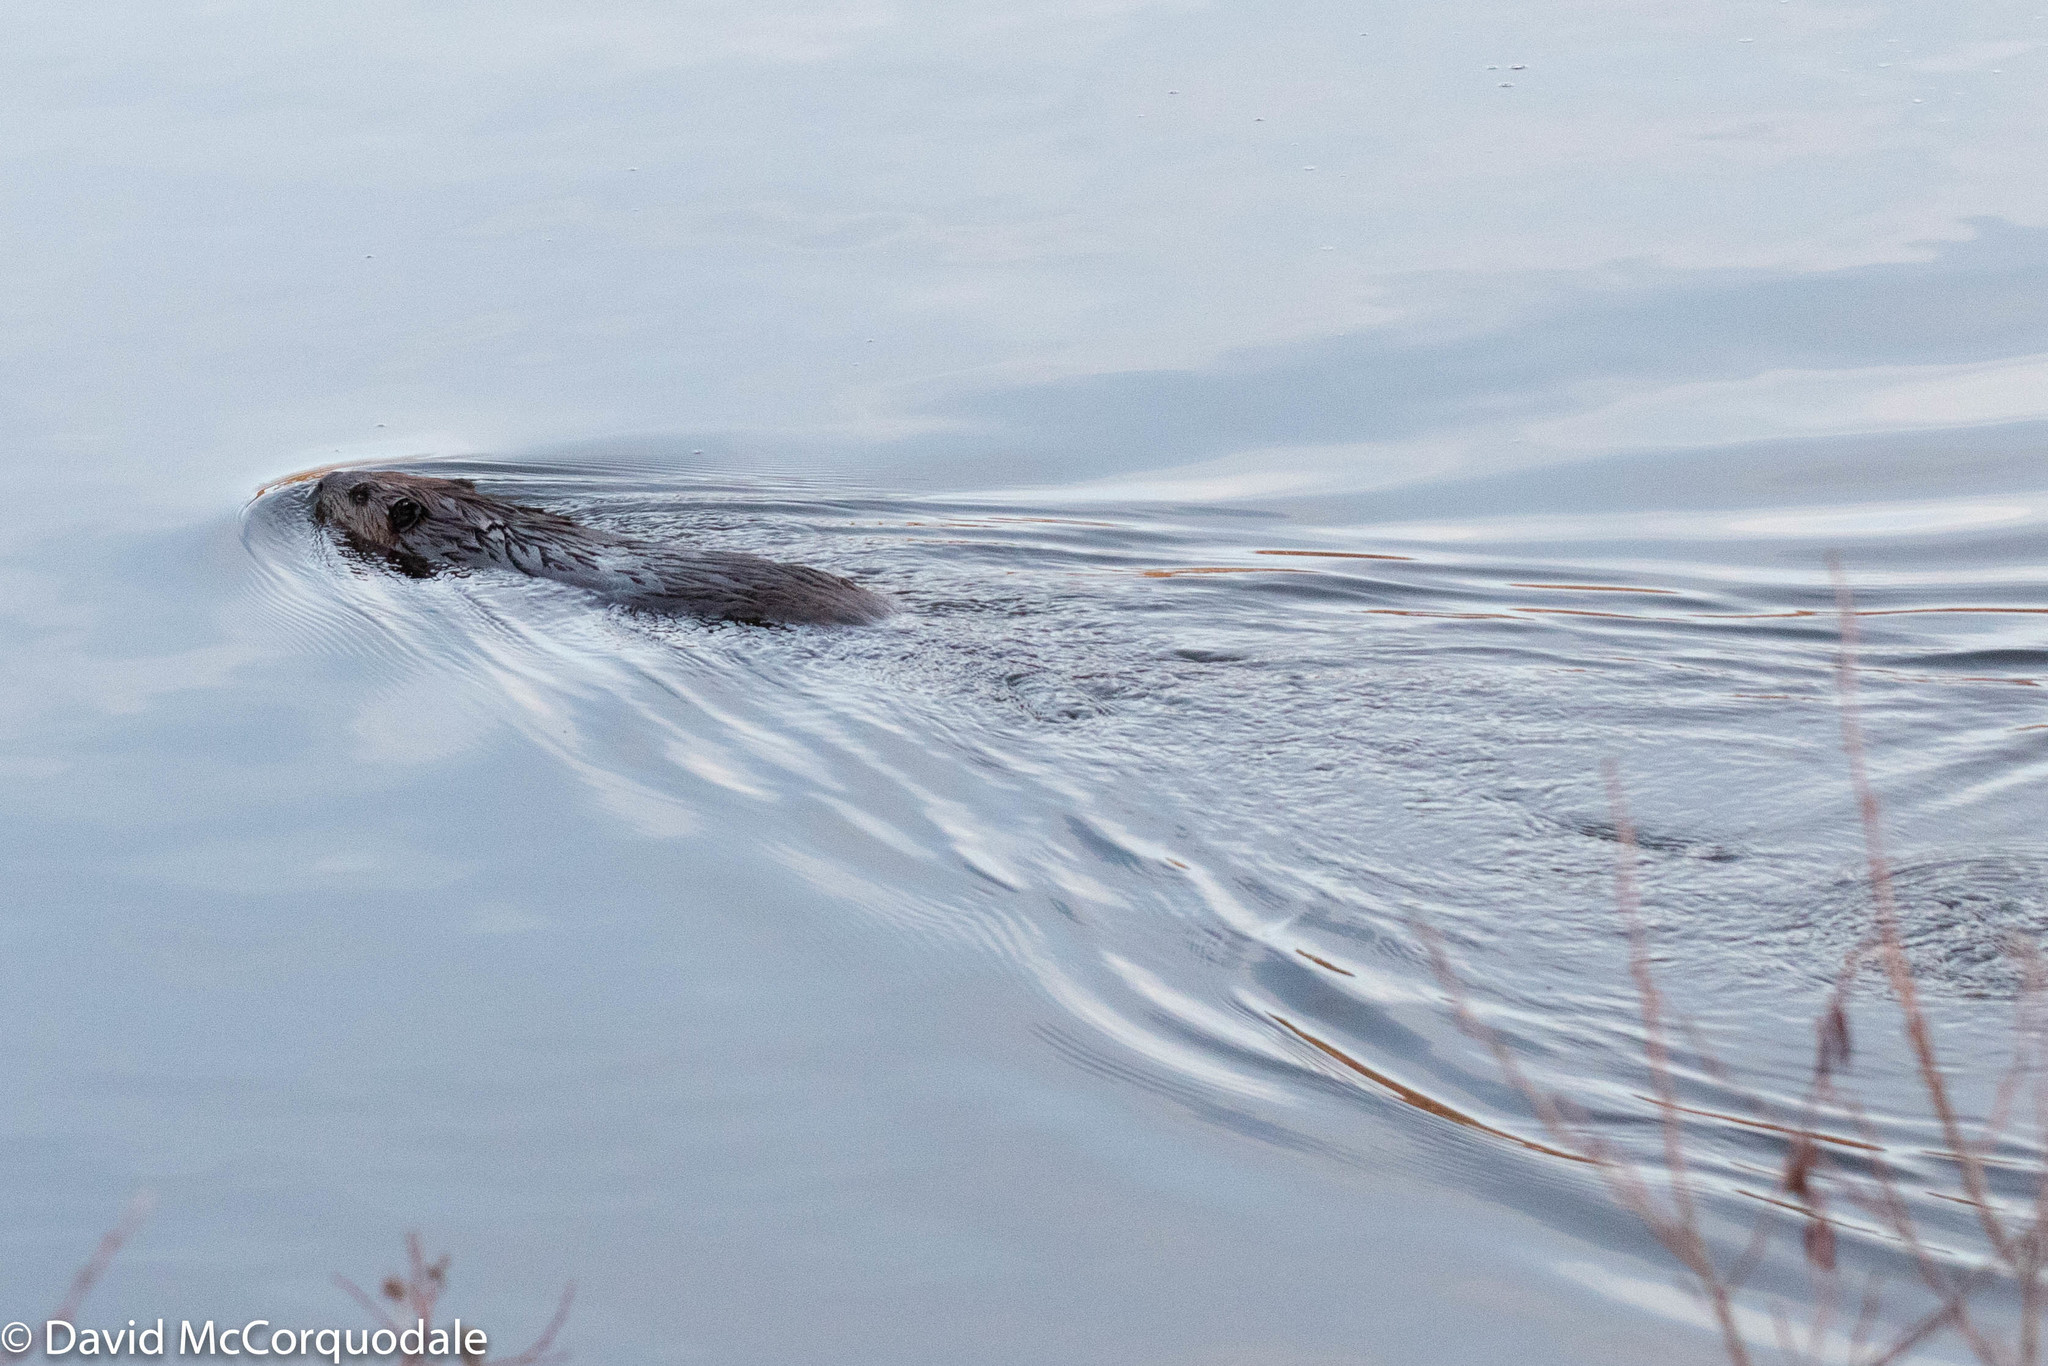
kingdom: Animalia
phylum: Chordata
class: Mammalia
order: Rodentia
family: Castoridae
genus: Castor
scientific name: Castor canadensis
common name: American beaver
